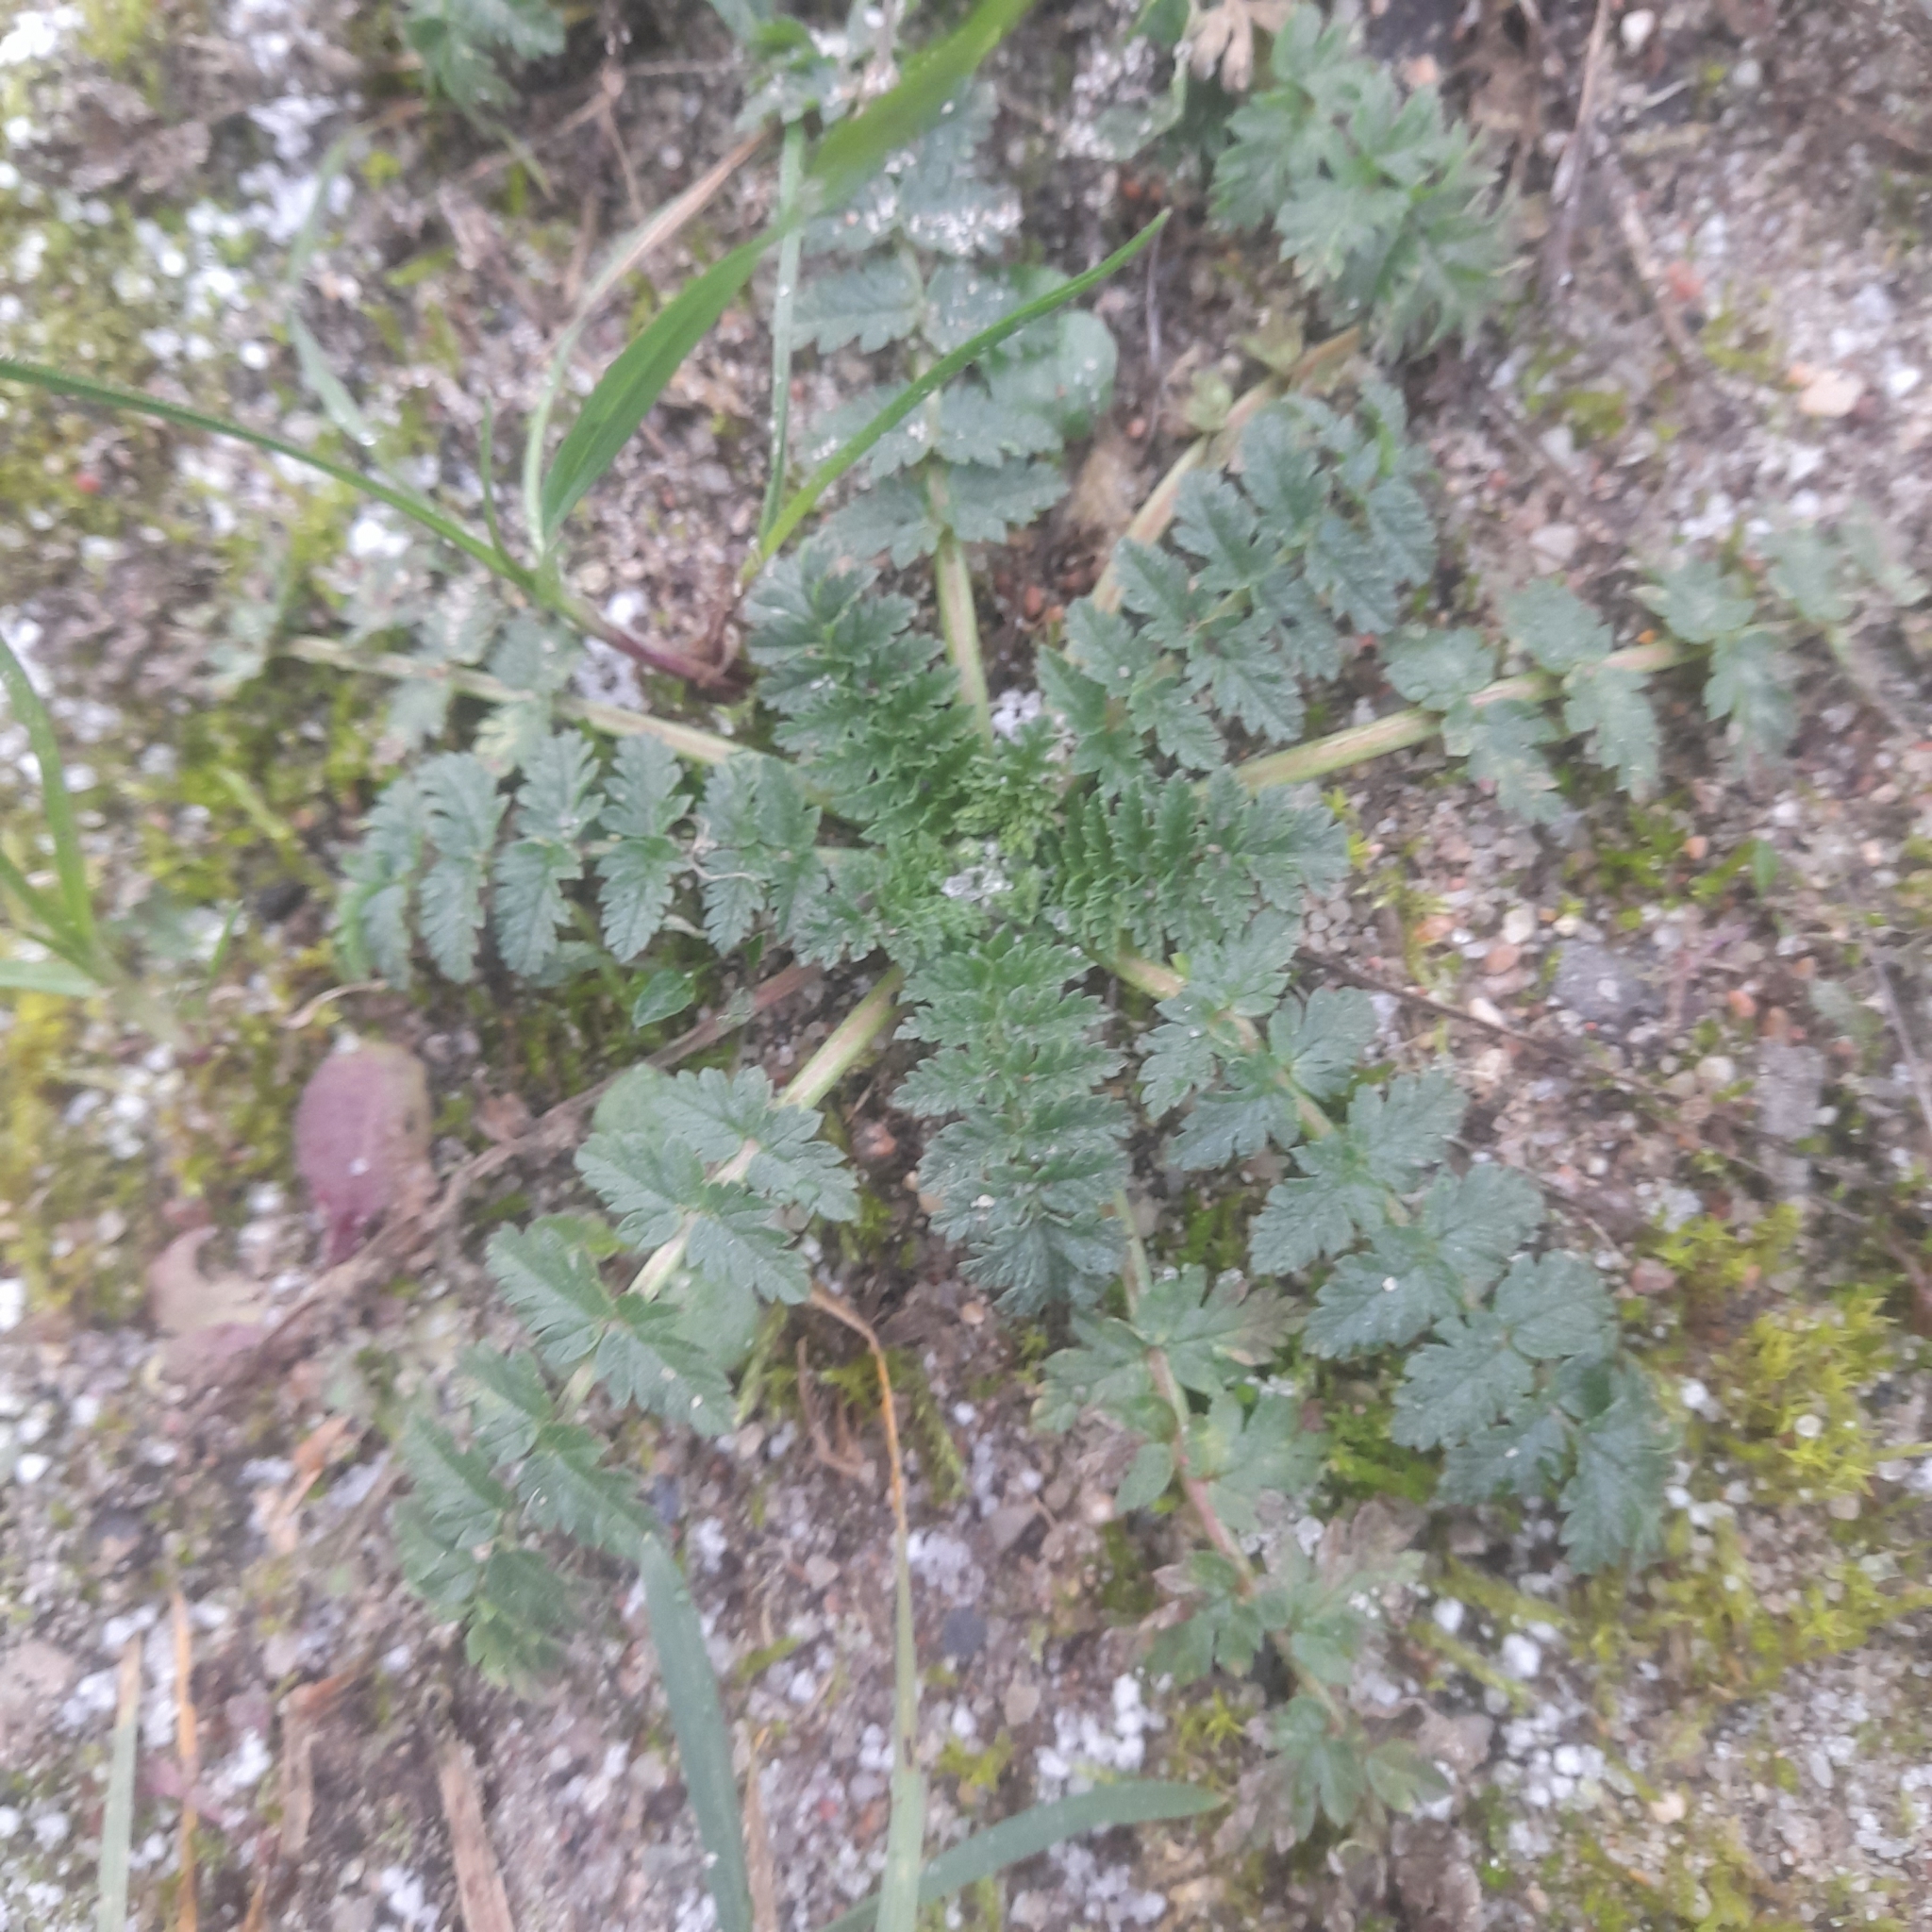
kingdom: Plantae
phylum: Tracheophyta
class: Magnoliopsida
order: Geraniales
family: Geraniaceae
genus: Erodium
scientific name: Erodium cicutarium
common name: Common stork's-bill
